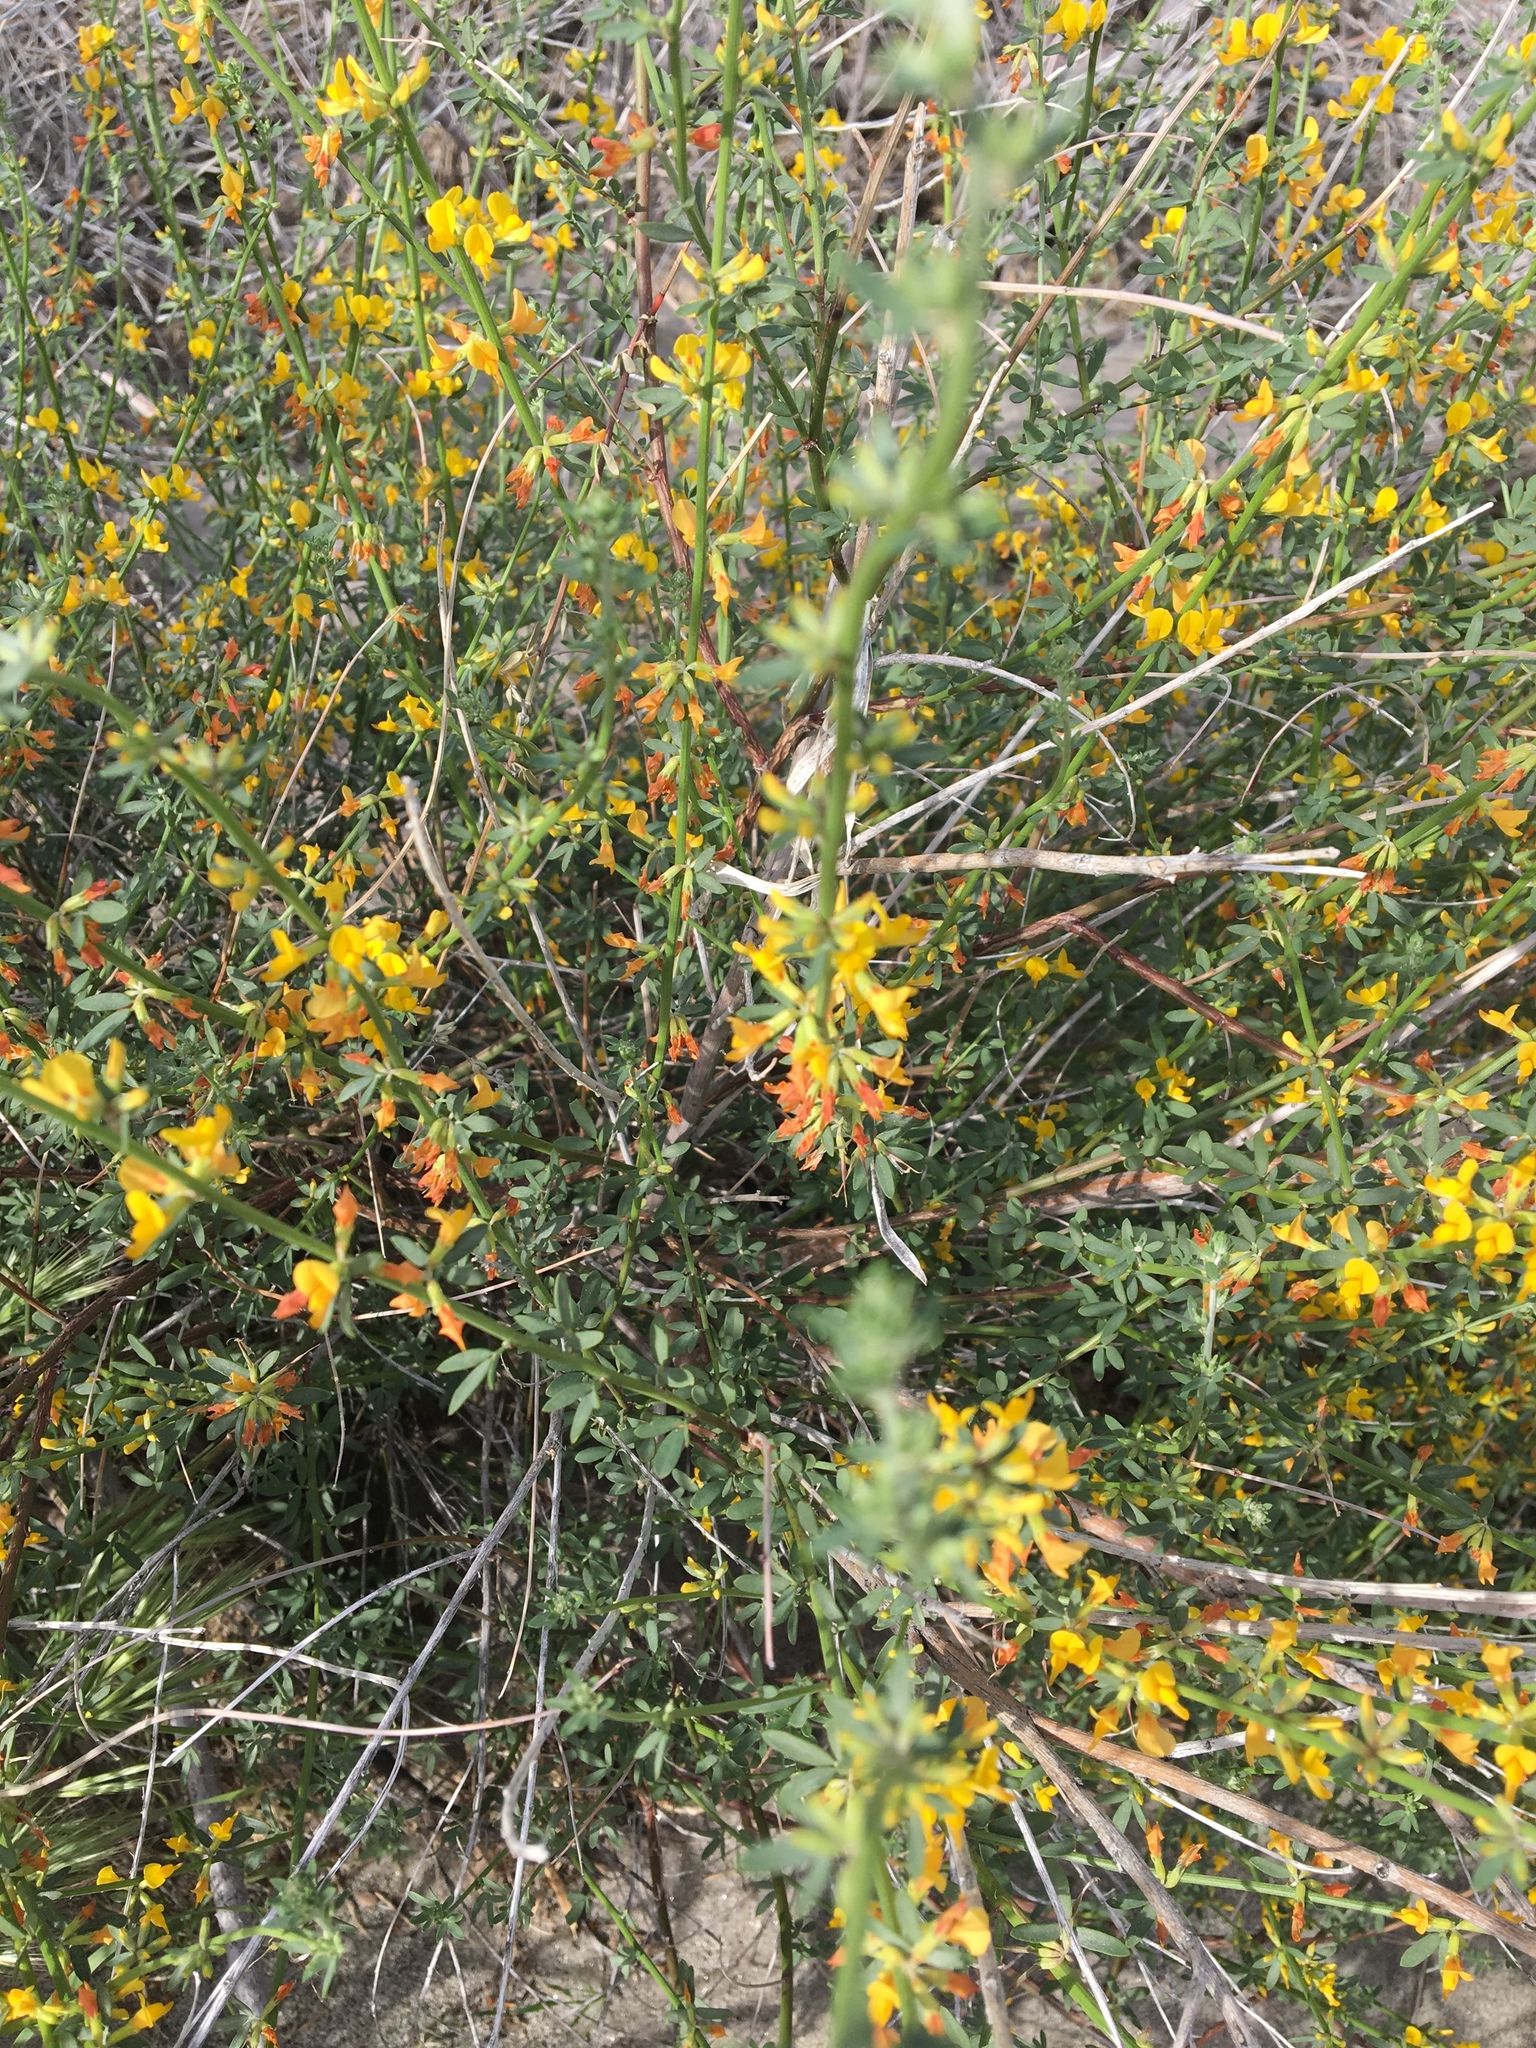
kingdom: Plantae
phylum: Tracheophyta
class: Magnoliopsida
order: Fabales
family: Fabaceae
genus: Acmispon
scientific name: Acmispon glaber
